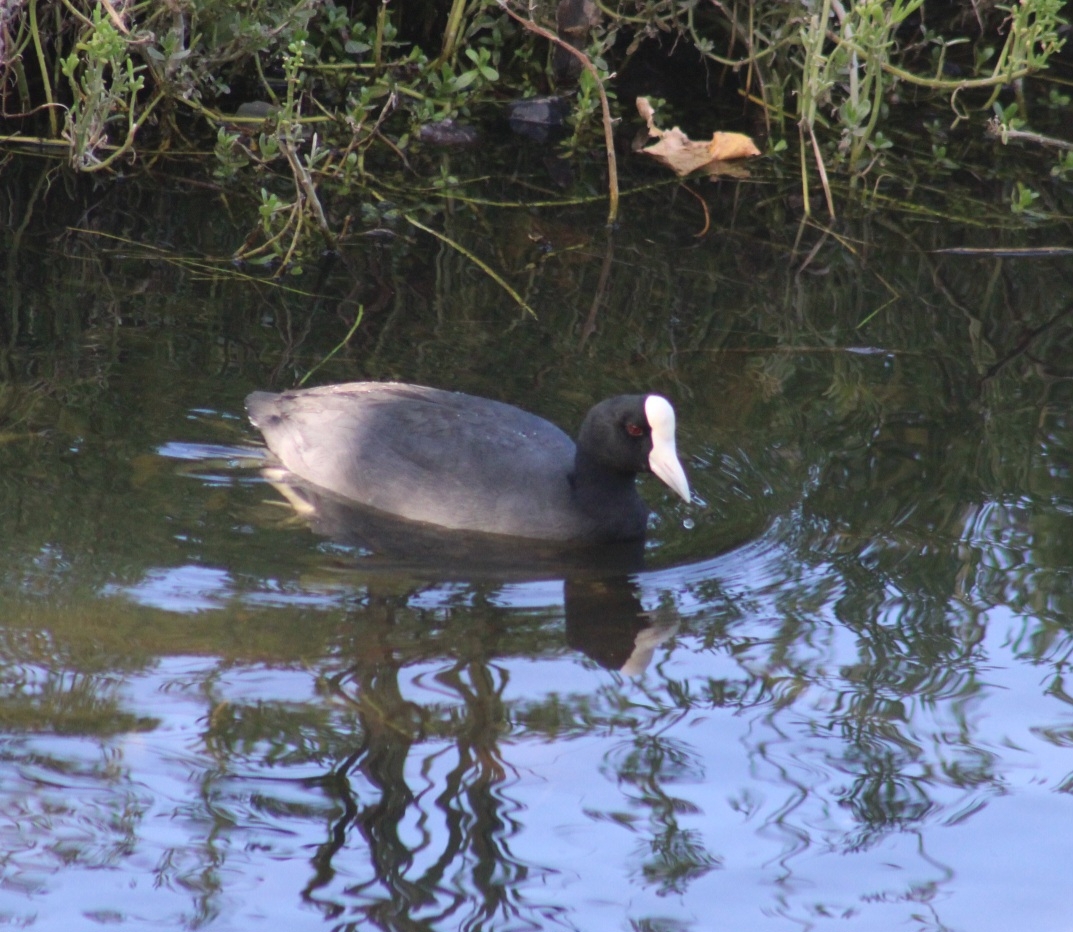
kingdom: Animalia
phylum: Chordata
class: Aves
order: Gruiformes
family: Rallidae
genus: Fulica
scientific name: Fulica alai
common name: Hawaiian coot
